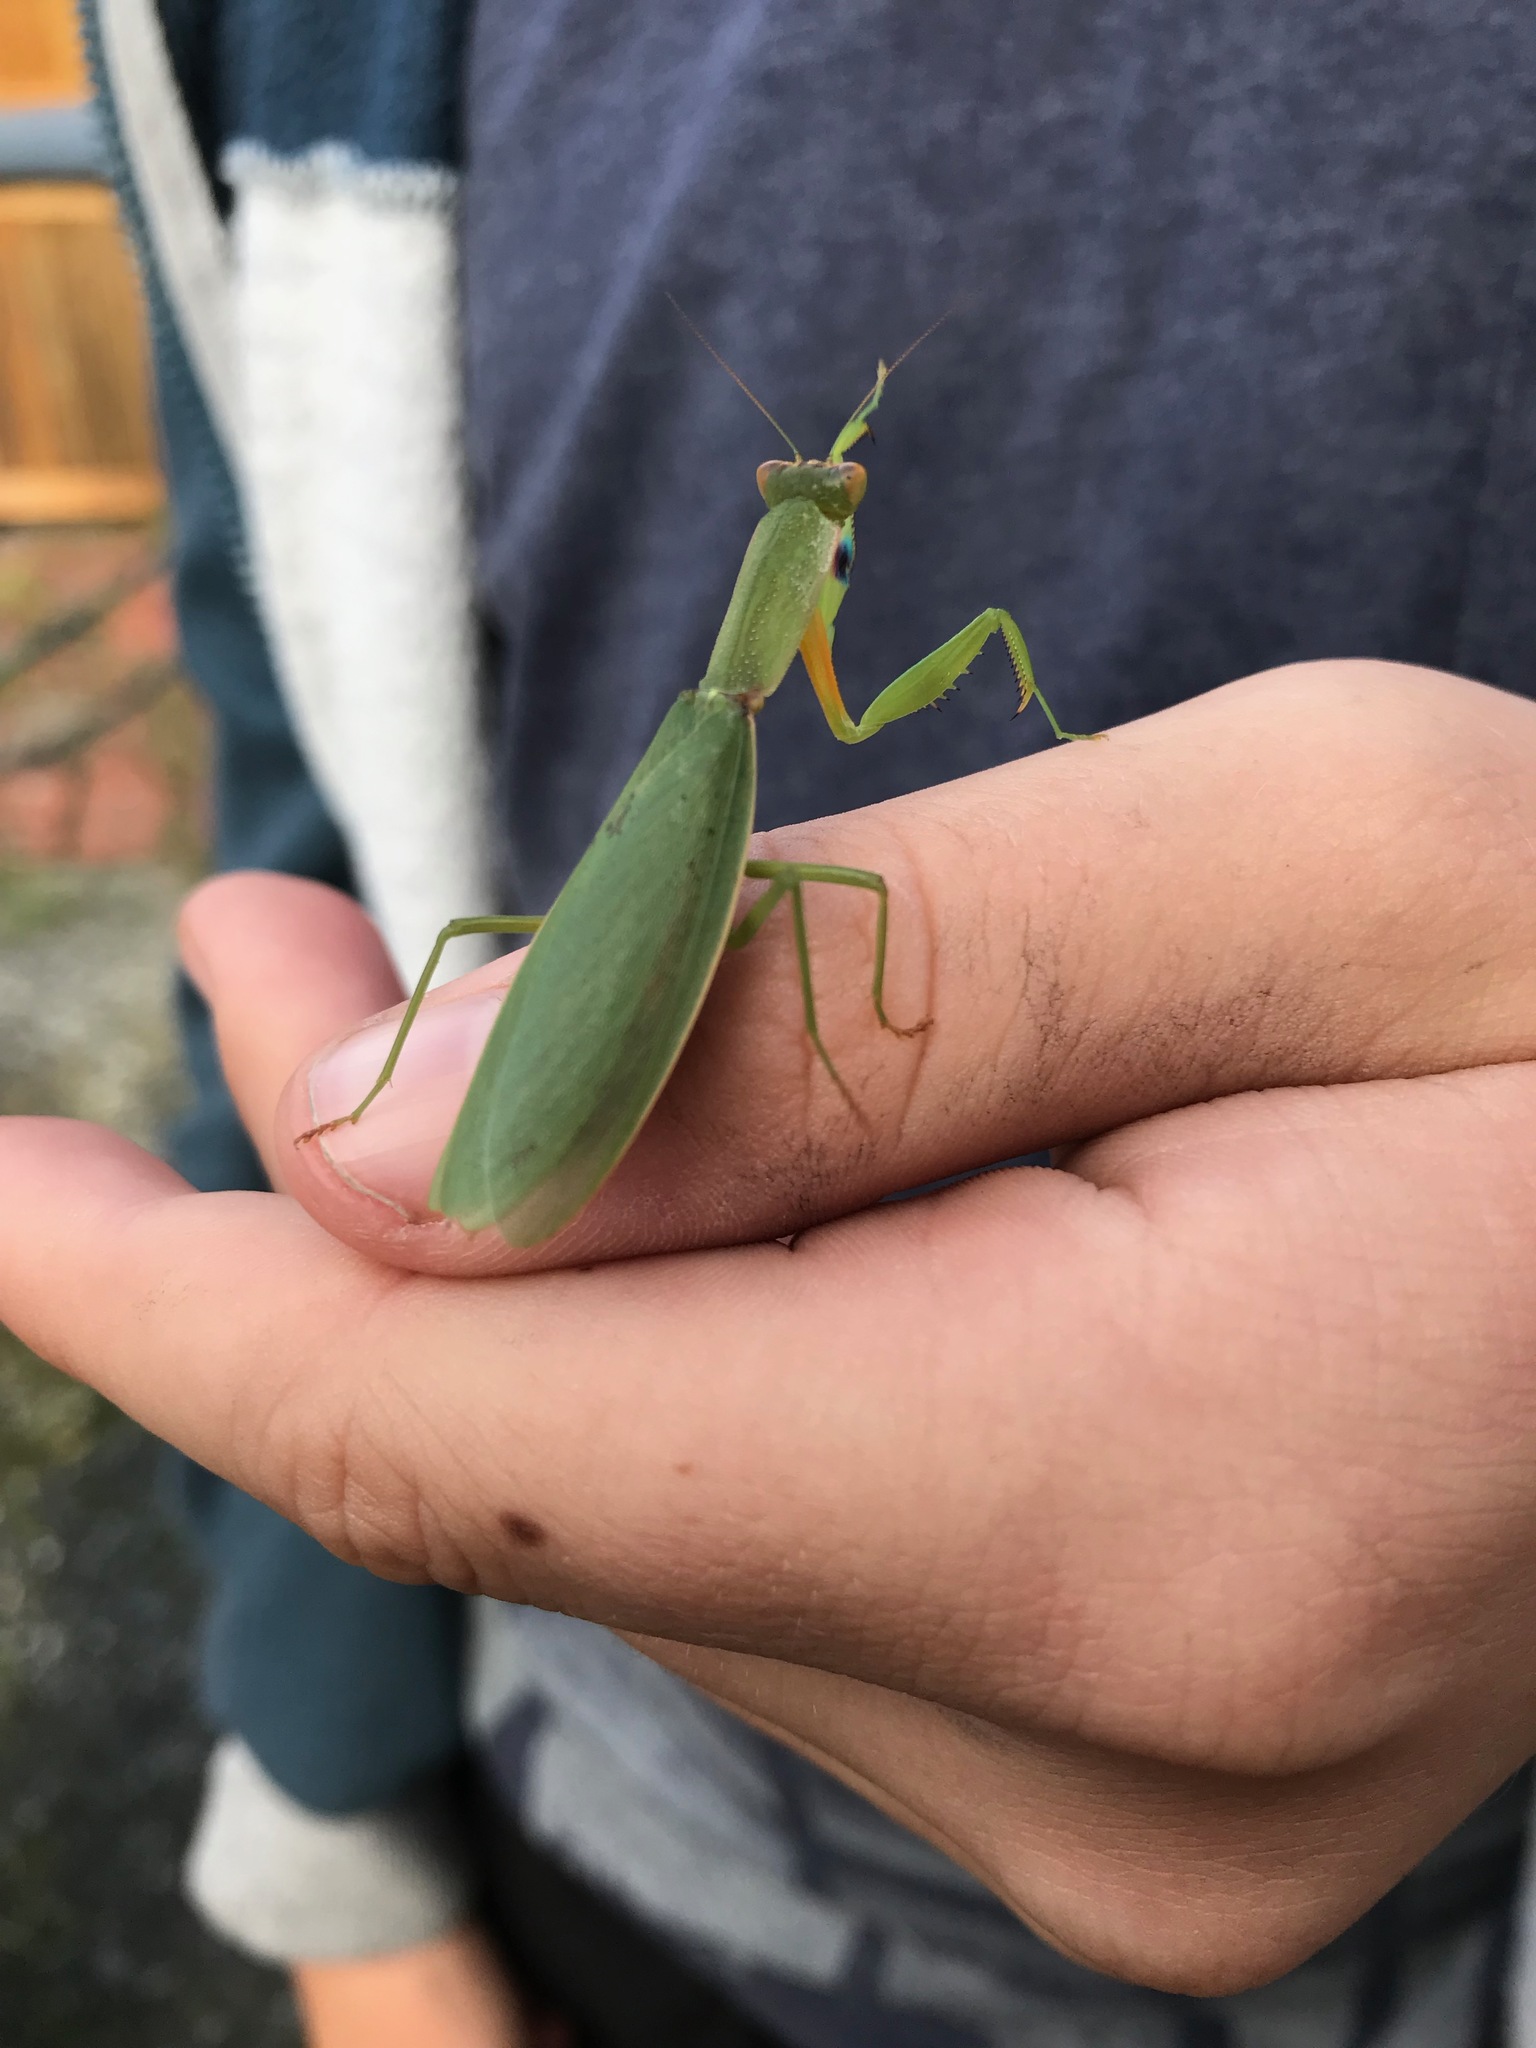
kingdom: Animalia
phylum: Arthropoda
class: Insecta
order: Mantodea
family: Mantidae
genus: Orthodera
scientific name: Orthodera novaezealandiae
